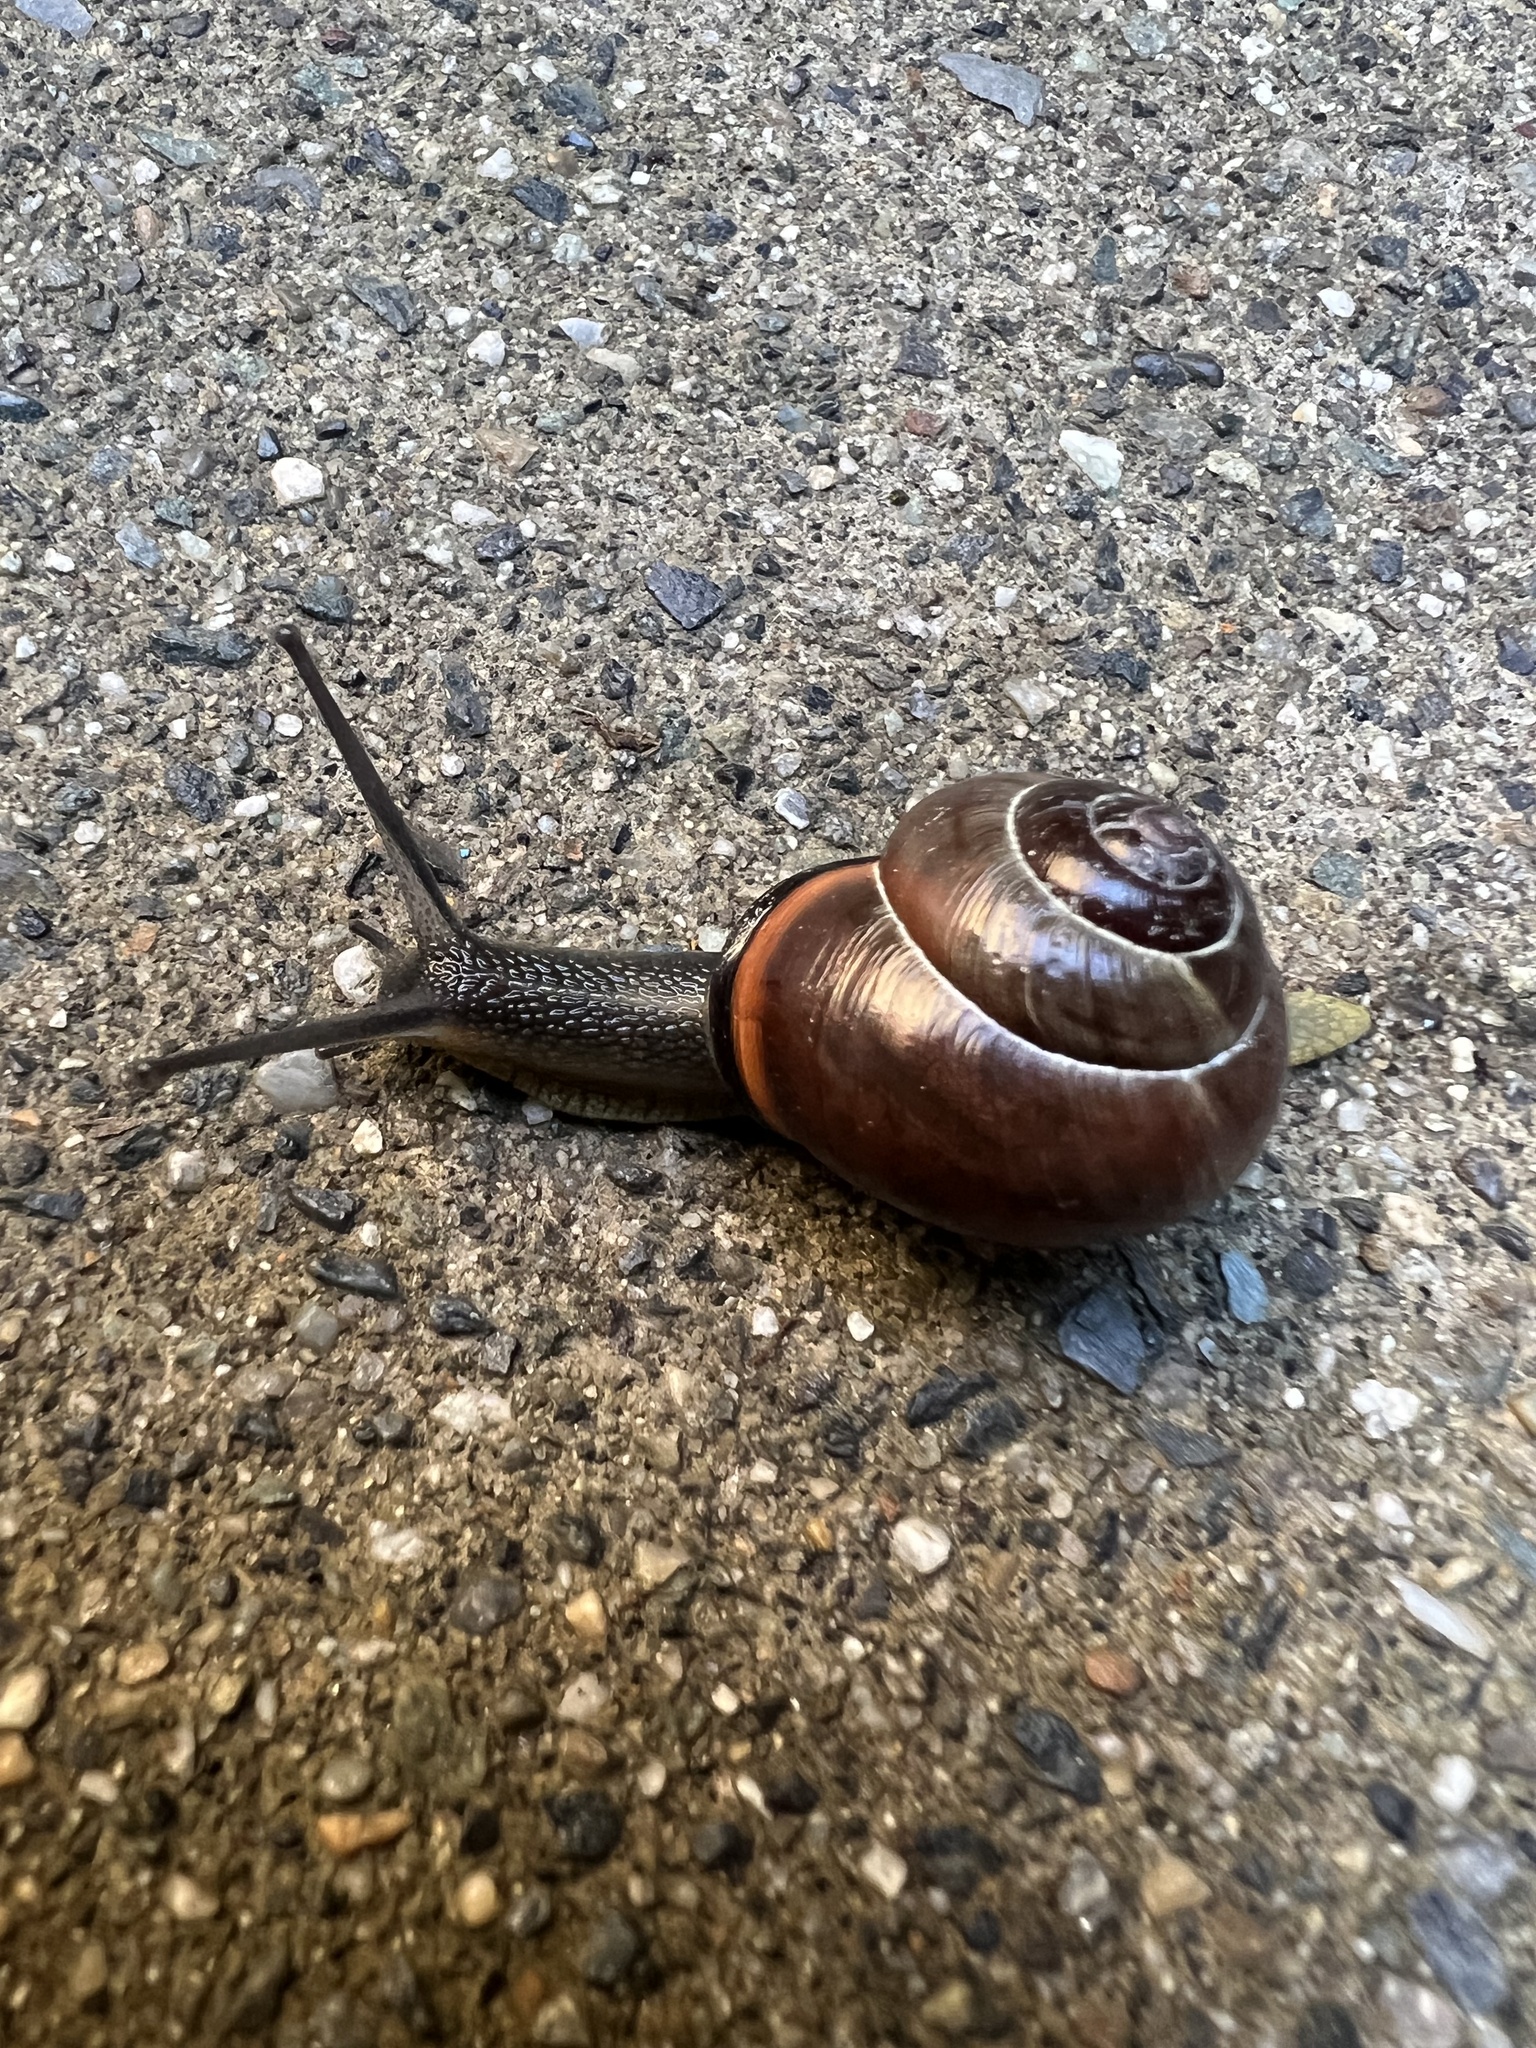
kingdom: Animalia
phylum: Mollusca
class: Gastropoda
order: Stylommatophora
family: Helicidae
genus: Cepaea
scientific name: Cepaea nemoralis
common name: Grovesnail
